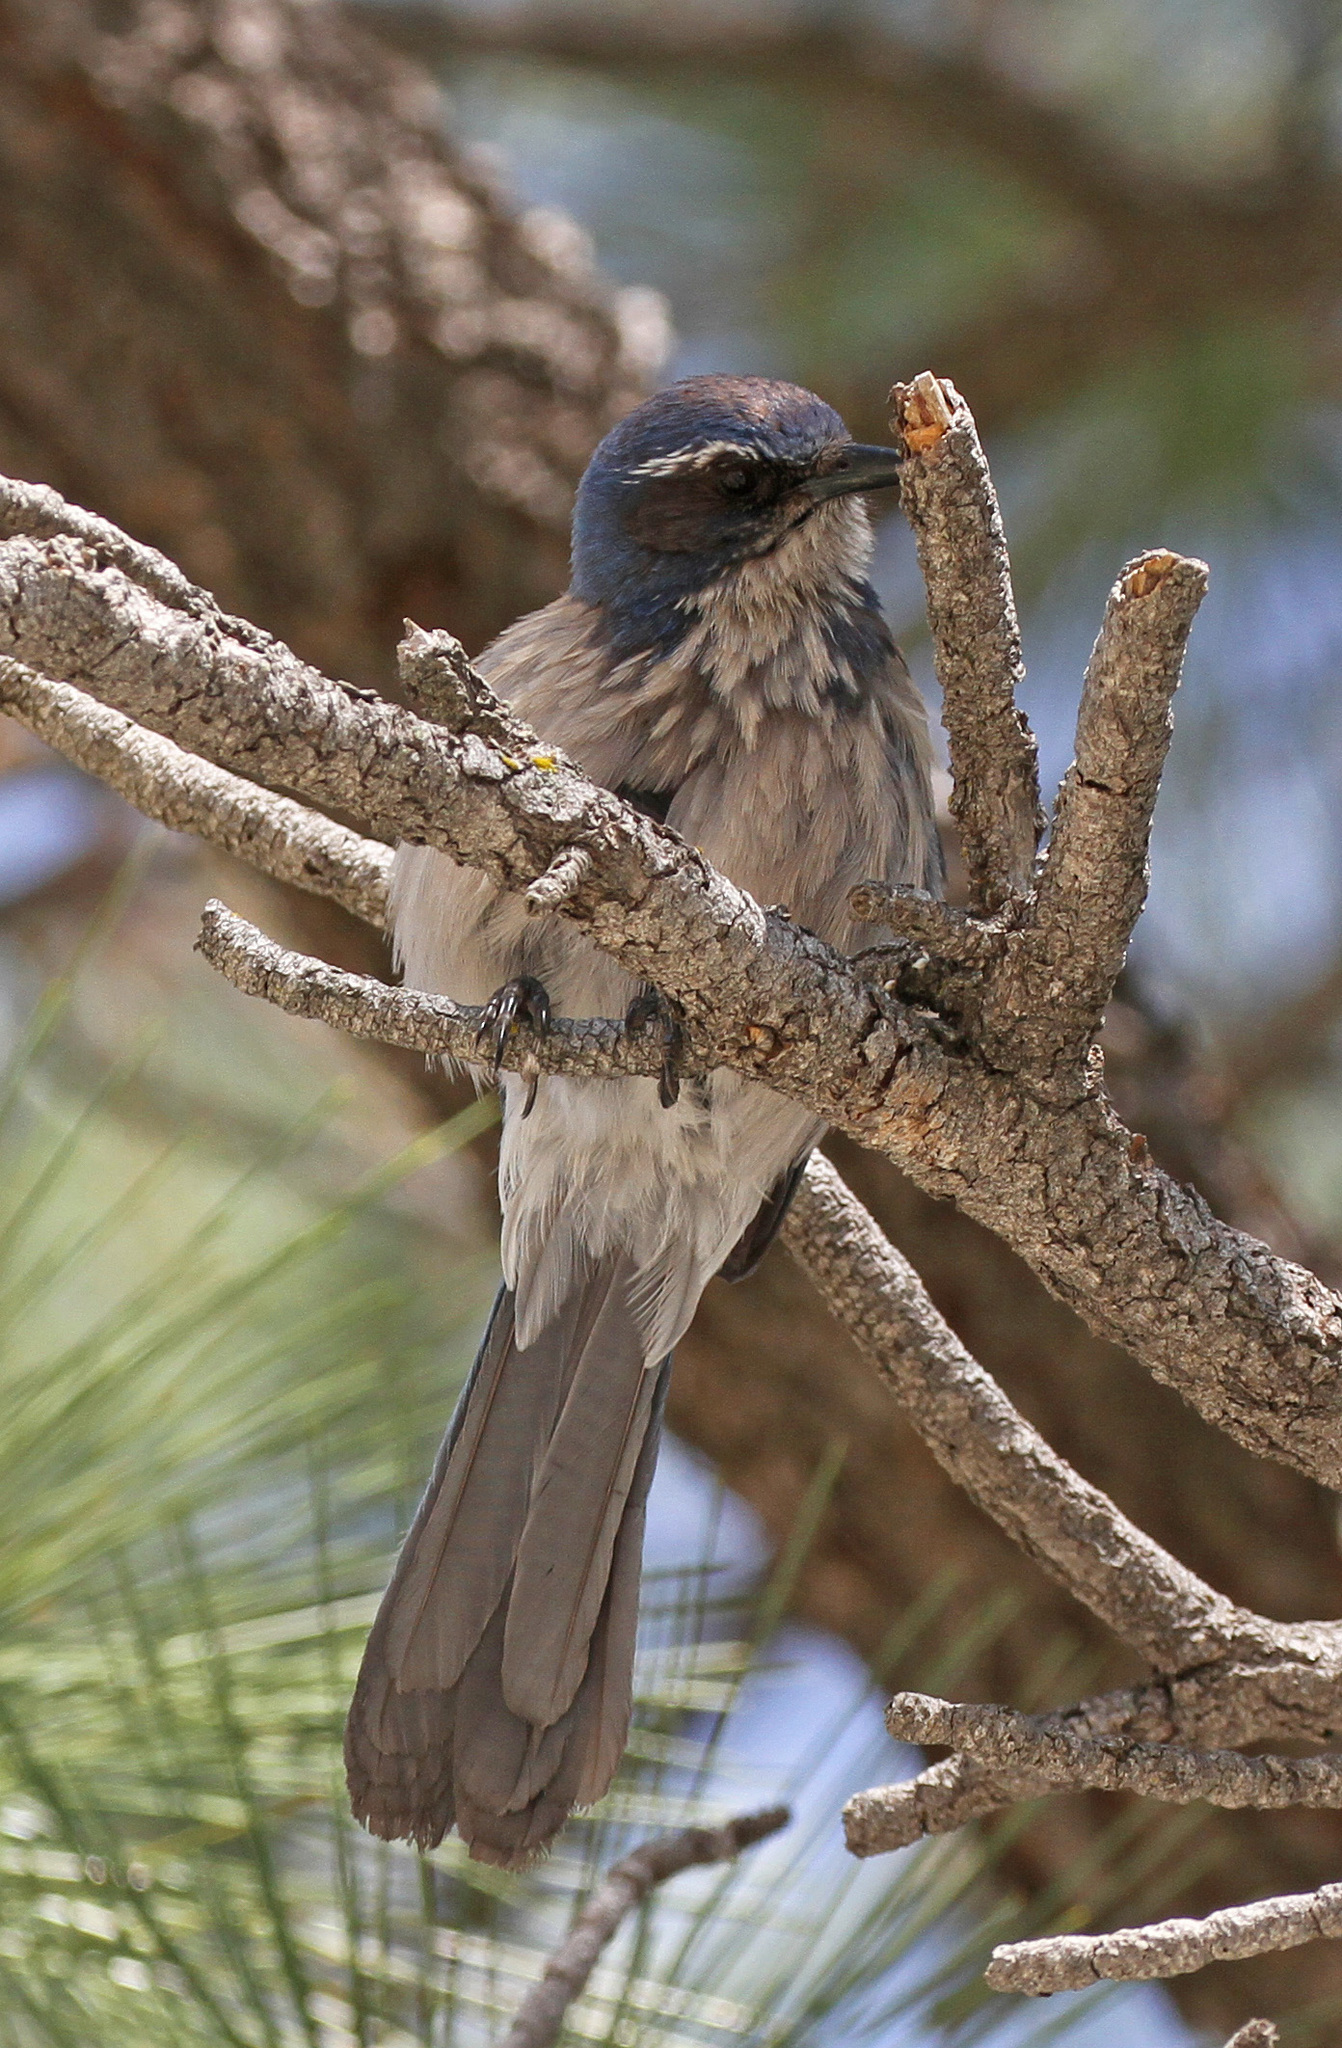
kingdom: Animalia
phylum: Chordata
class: Aves
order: Passeriformes
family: Corvidae
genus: Aphelocoma
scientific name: Aphelocoma californica
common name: California scrub-jay
